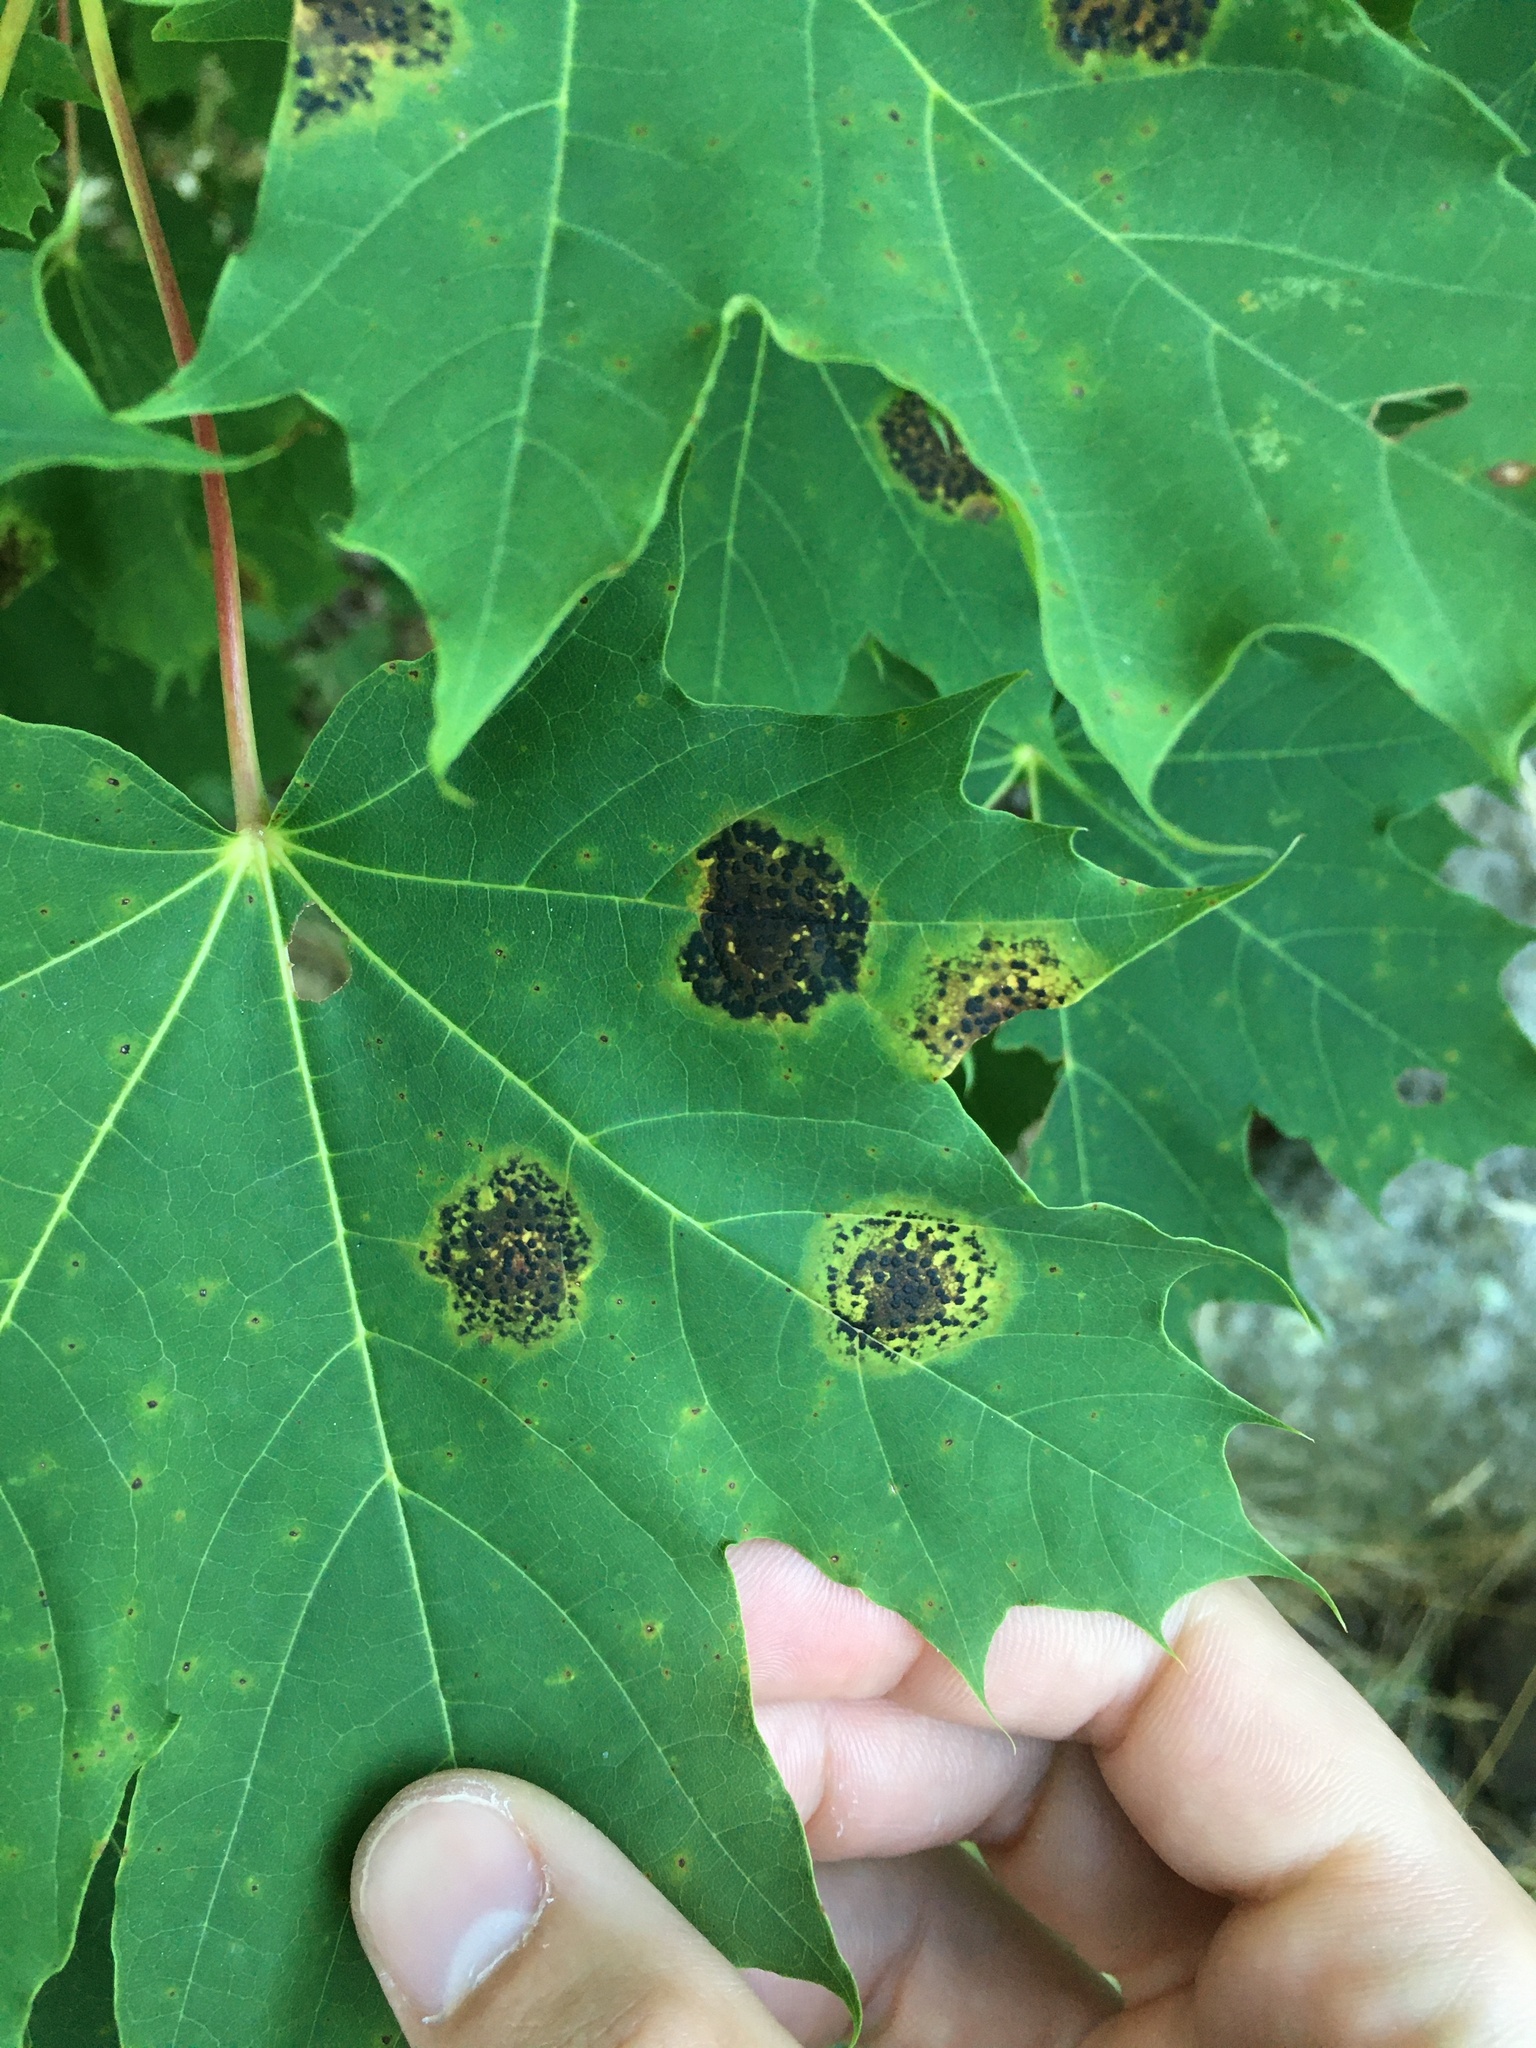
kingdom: Fungi
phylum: Ascomycota
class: Leotiomycetes
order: Rhytismatales
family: Rhytismataceae
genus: Rhytisma
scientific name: Rhytisma acerinum
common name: European tar spot
